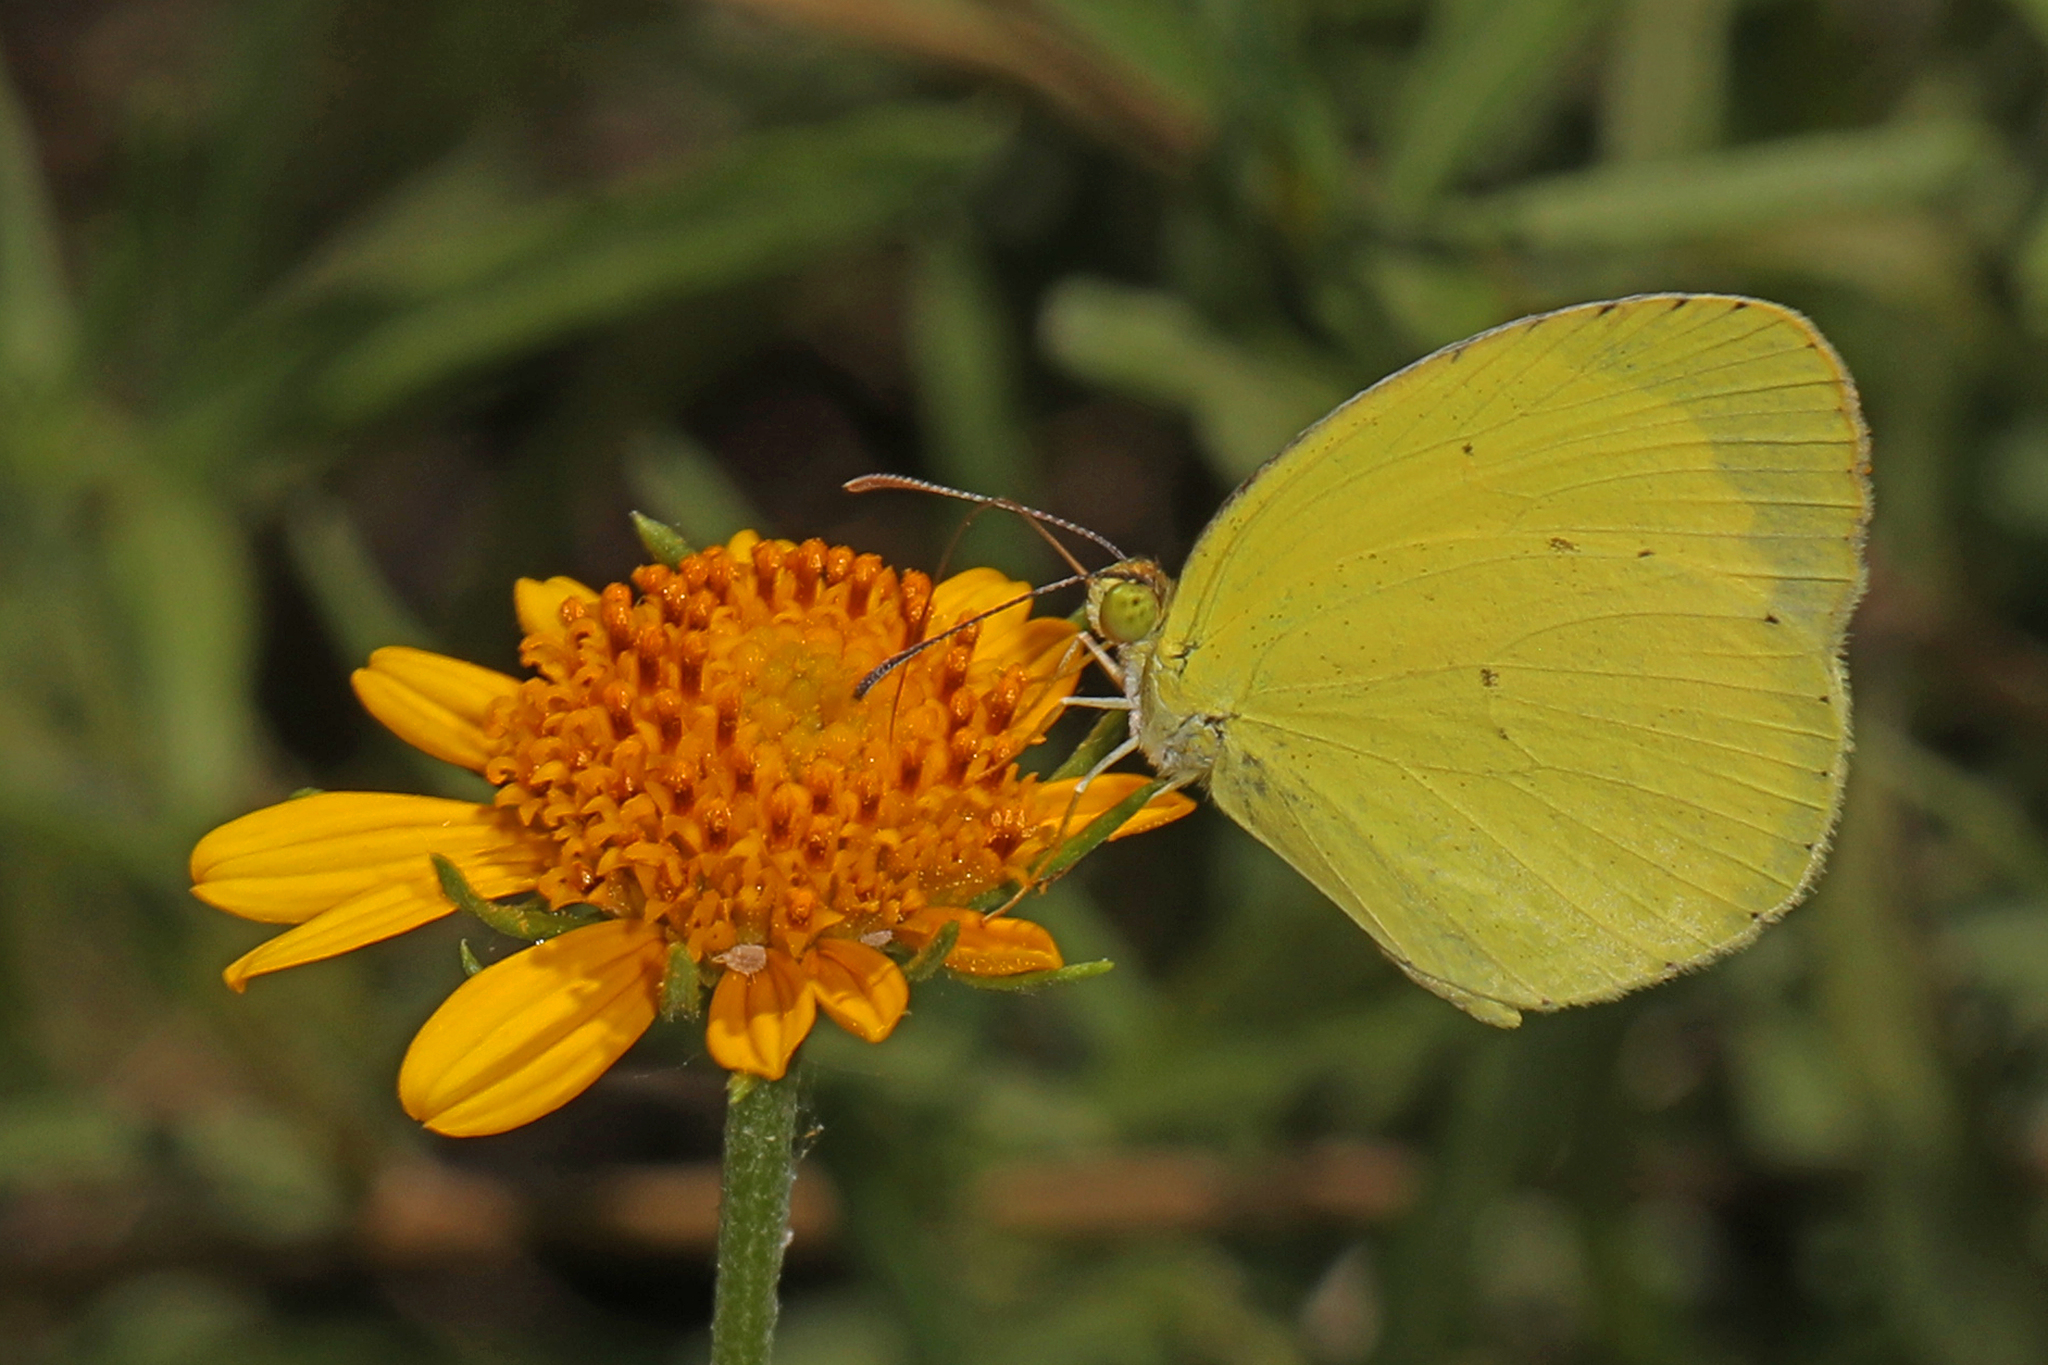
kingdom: Animalia
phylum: Arthropoda
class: Insecta
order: Lepidoptera
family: Pieridae
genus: Pyrisitia
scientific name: Pyrisitia nise
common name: Mimosa yellow
